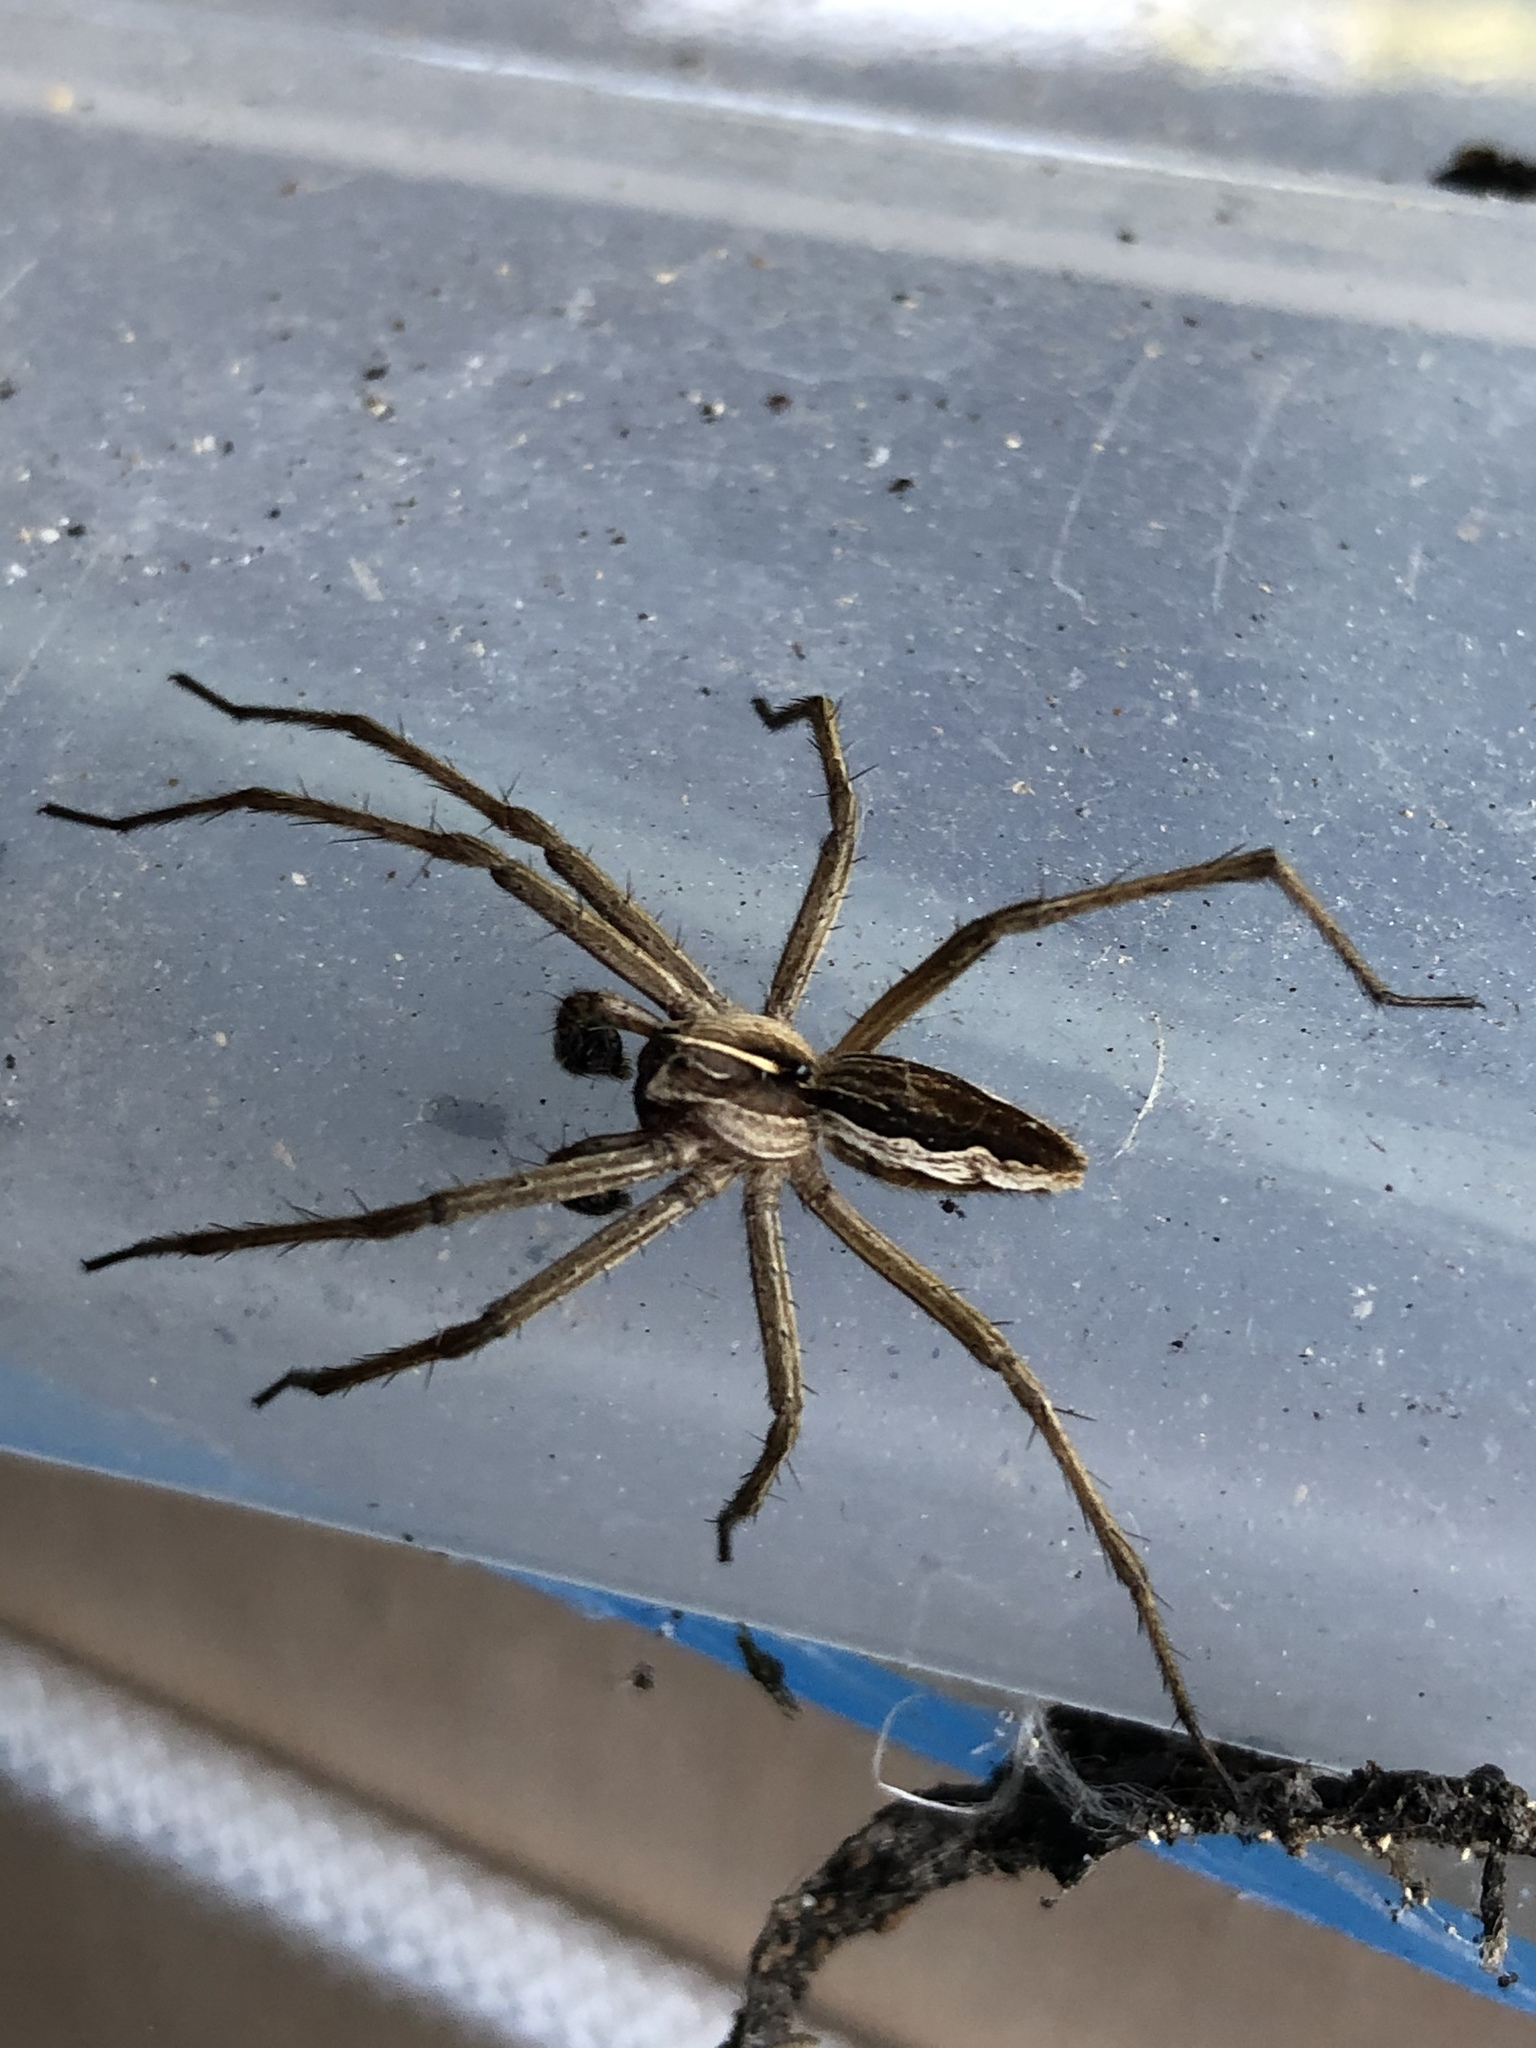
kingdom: Animalia
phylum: Arthropoda
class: Arachnida
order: Araneae
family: Pisauridae
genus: Pisaura
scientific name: Pisaura mirabilis
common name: Tent spider
